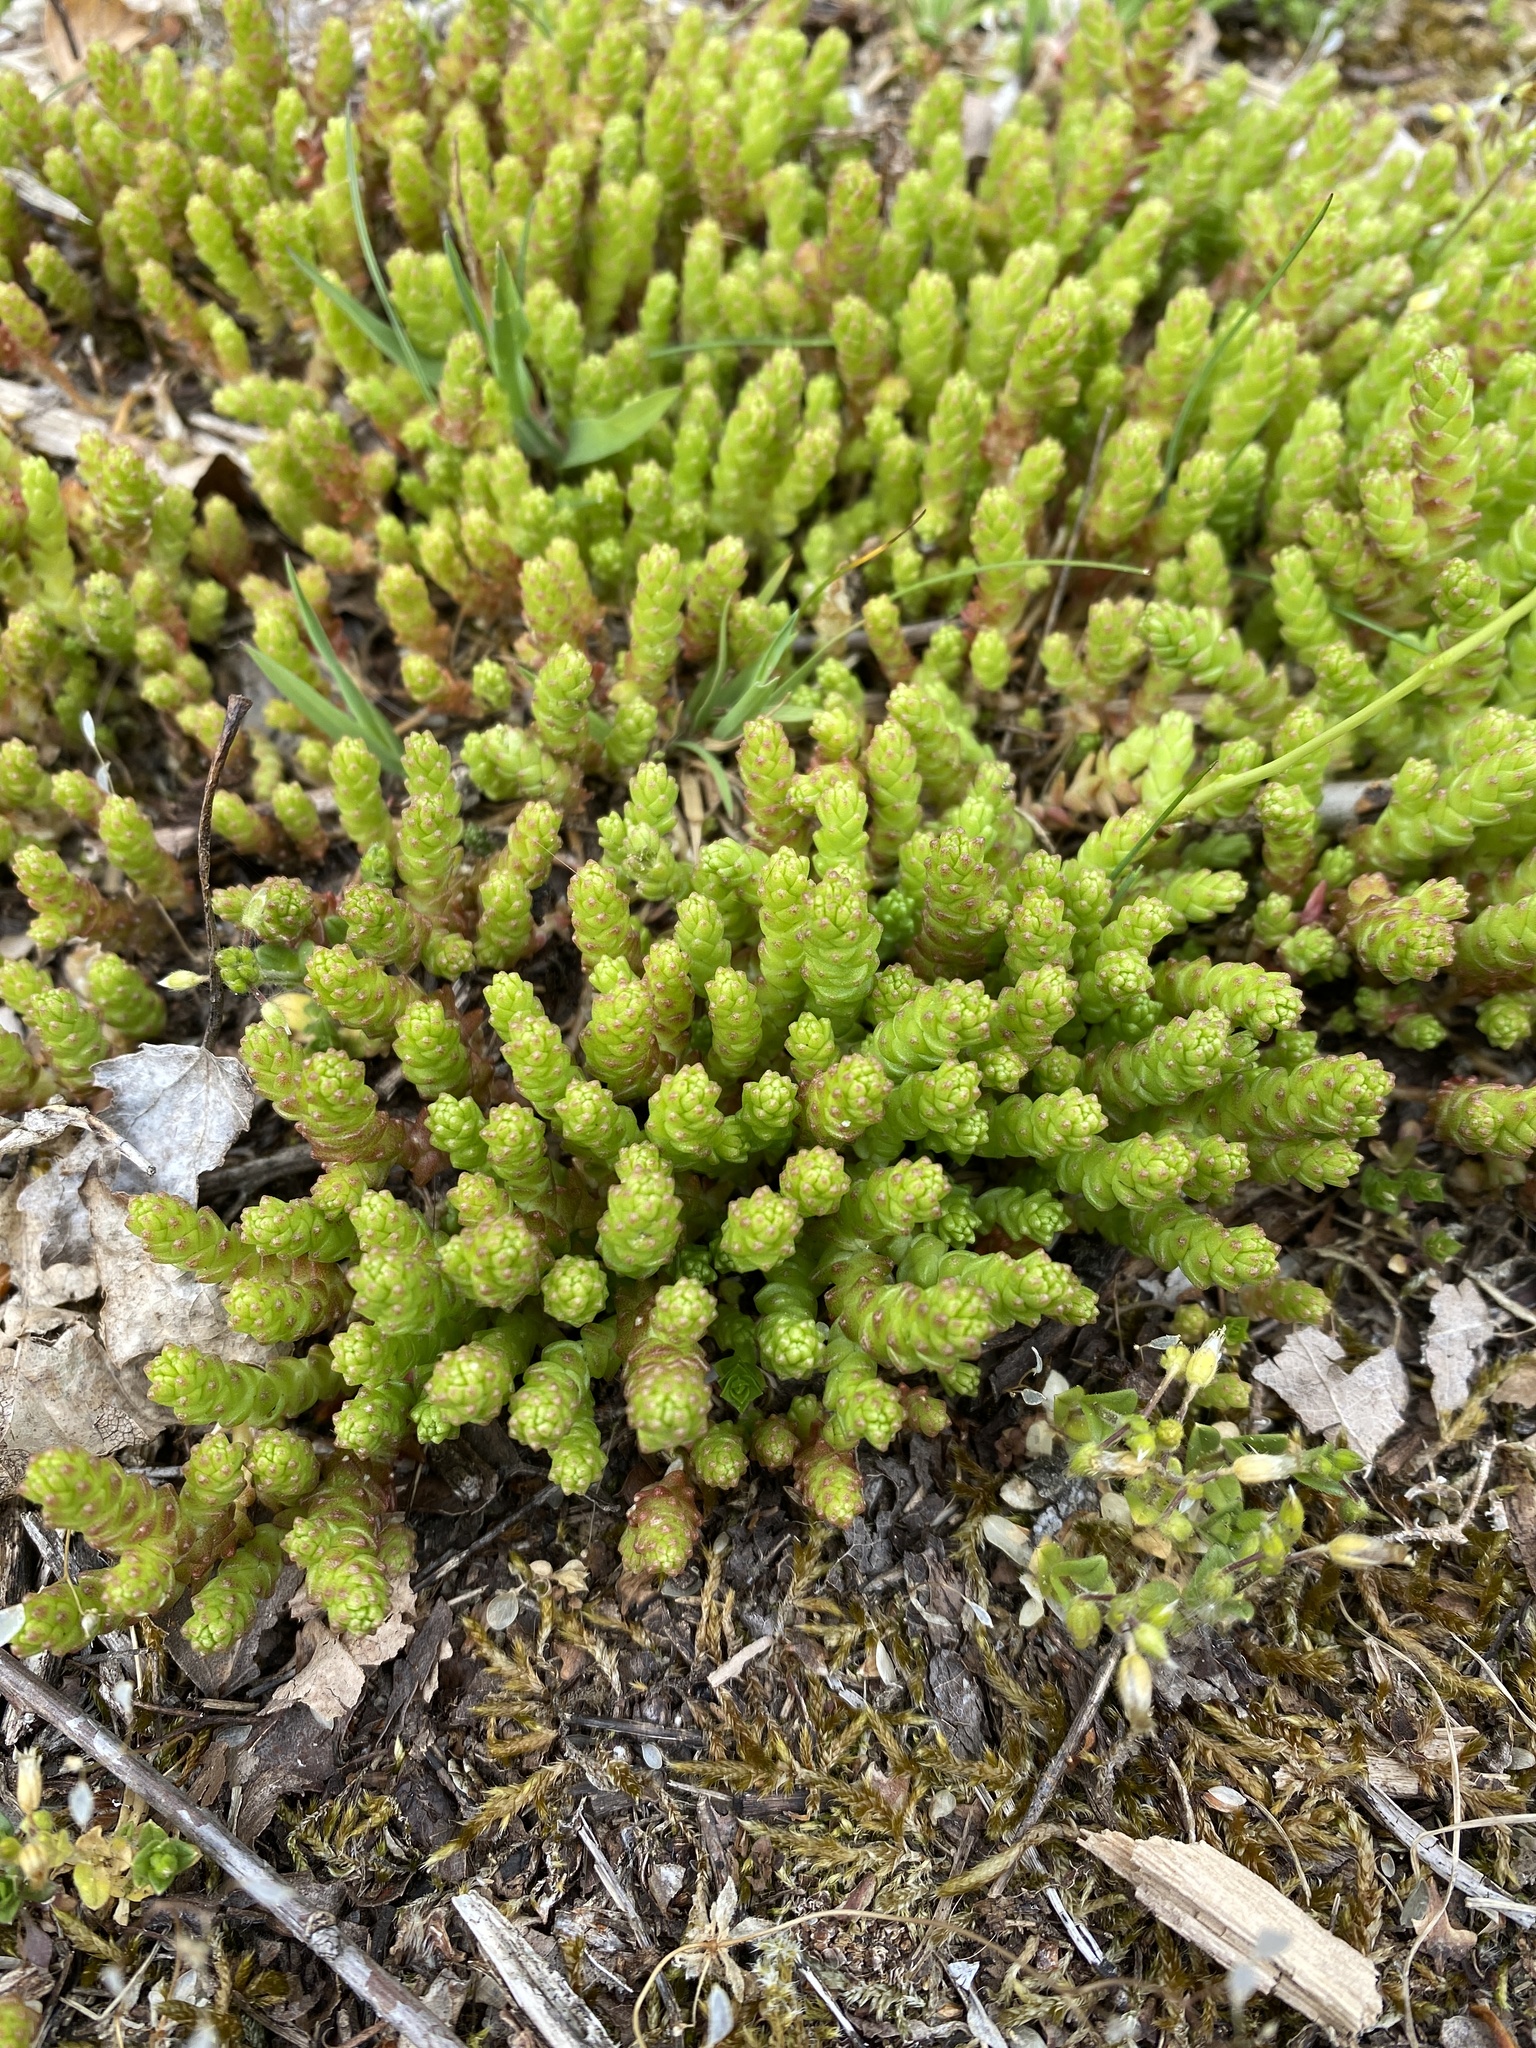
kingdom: Plantae
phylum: Tracheophyta
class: Magnoliopsida
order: Saxifragales
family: Crassulaceae
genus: Sedum
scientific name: Sedum acre
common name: Biting stonecrop
